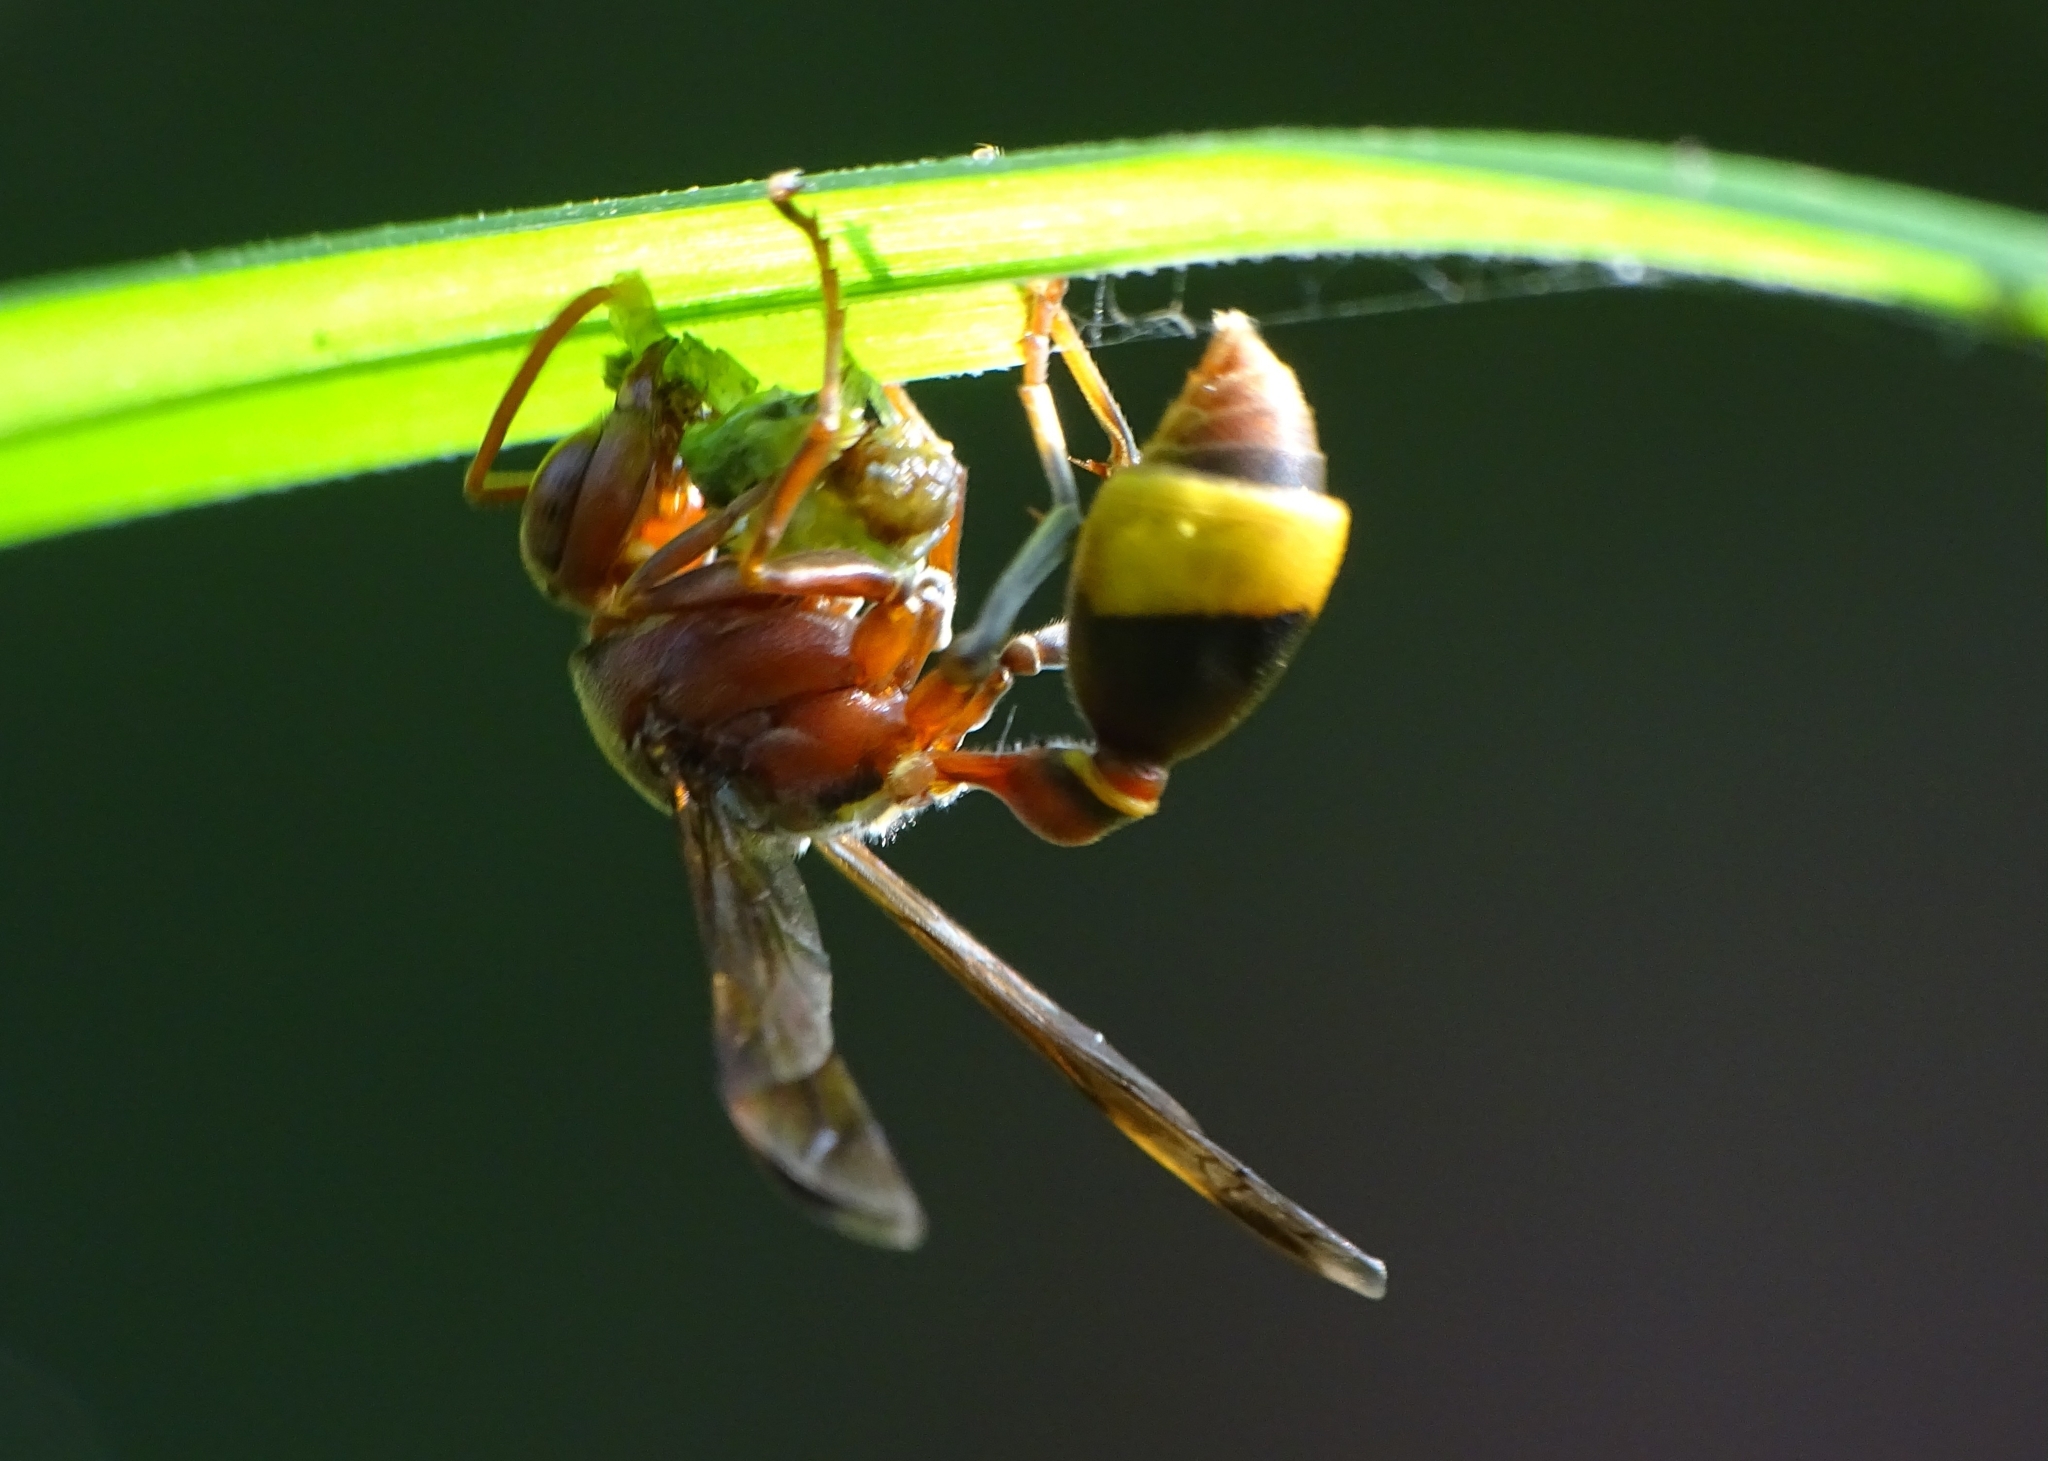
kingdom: Animalia
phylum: Arthropoda
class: Insecta
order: Hymenoptera
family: Vespidae
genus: Ropalidia
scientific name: Ropalidia
